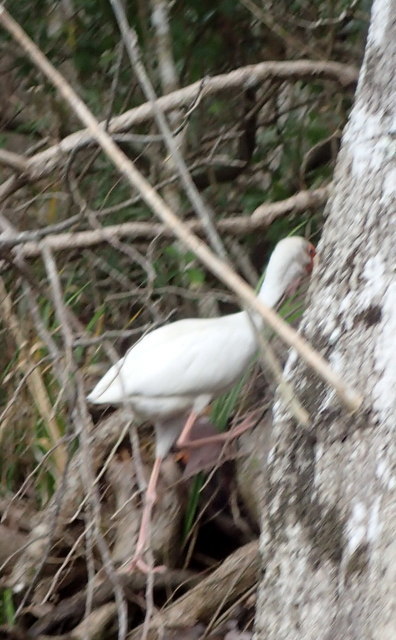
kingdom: Animalia
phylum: Chordata
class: Aves
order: Pelecaniformes
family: Threskiornithidae
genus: Eudocimus
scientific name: Eudocimus albus
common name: White ibis
